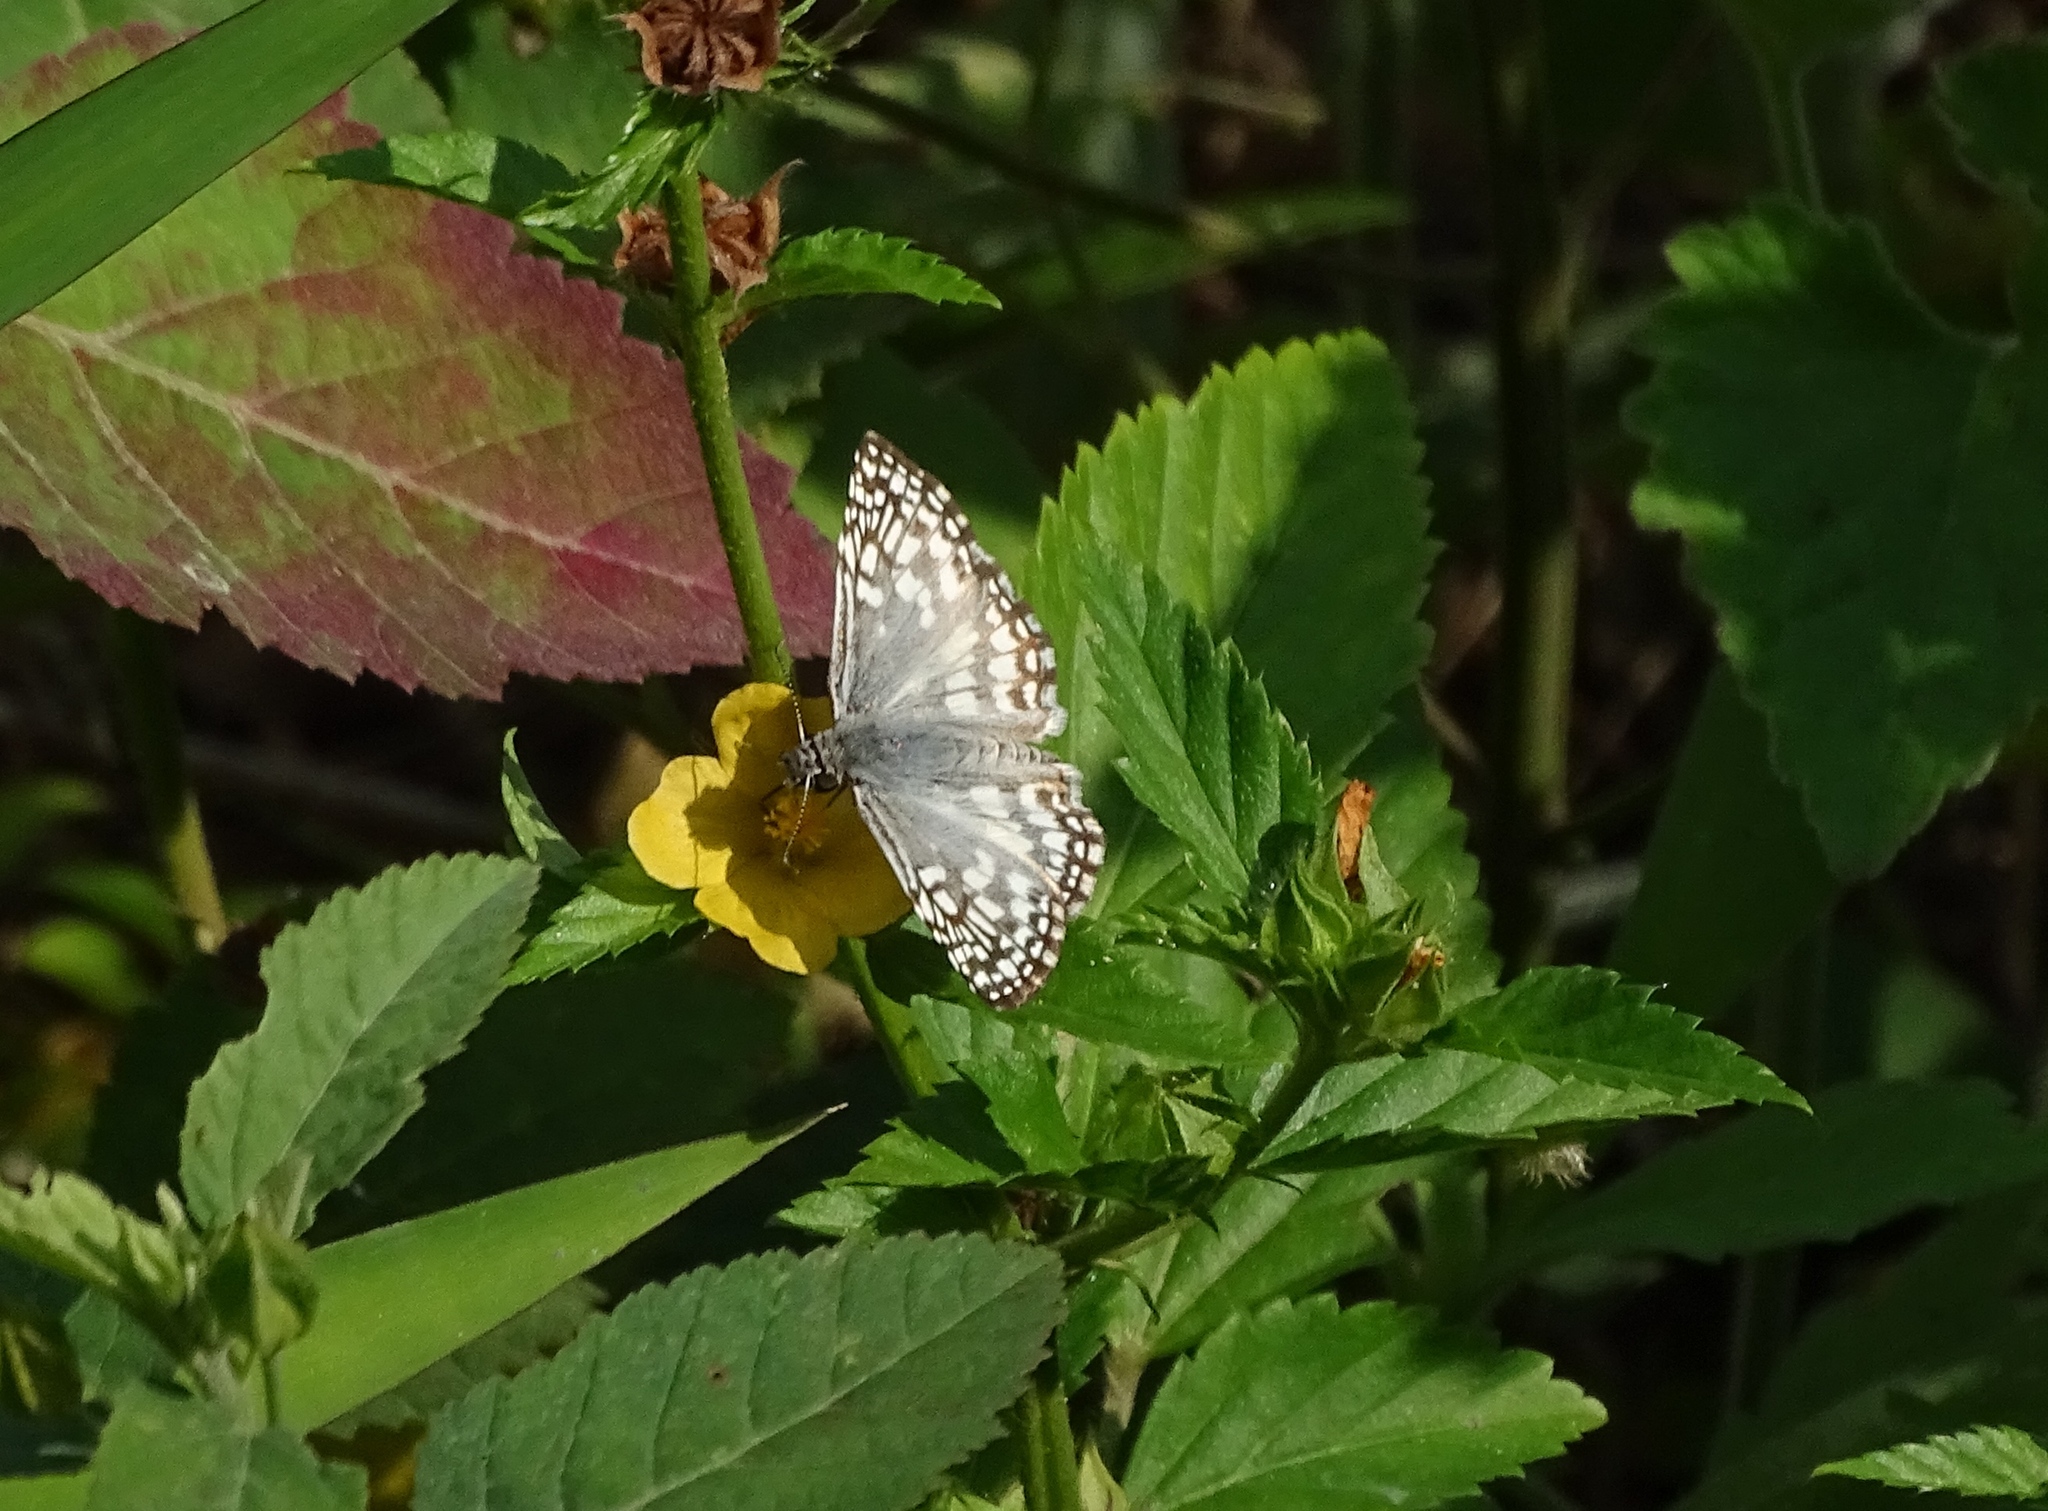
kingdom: Animalia
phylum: Arthropoda
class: Insecta
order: Lepidoptera
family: Hesperiidae
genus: Pyrgus
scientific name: Pyrgus oileus
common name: Tropical checkered-skipper
